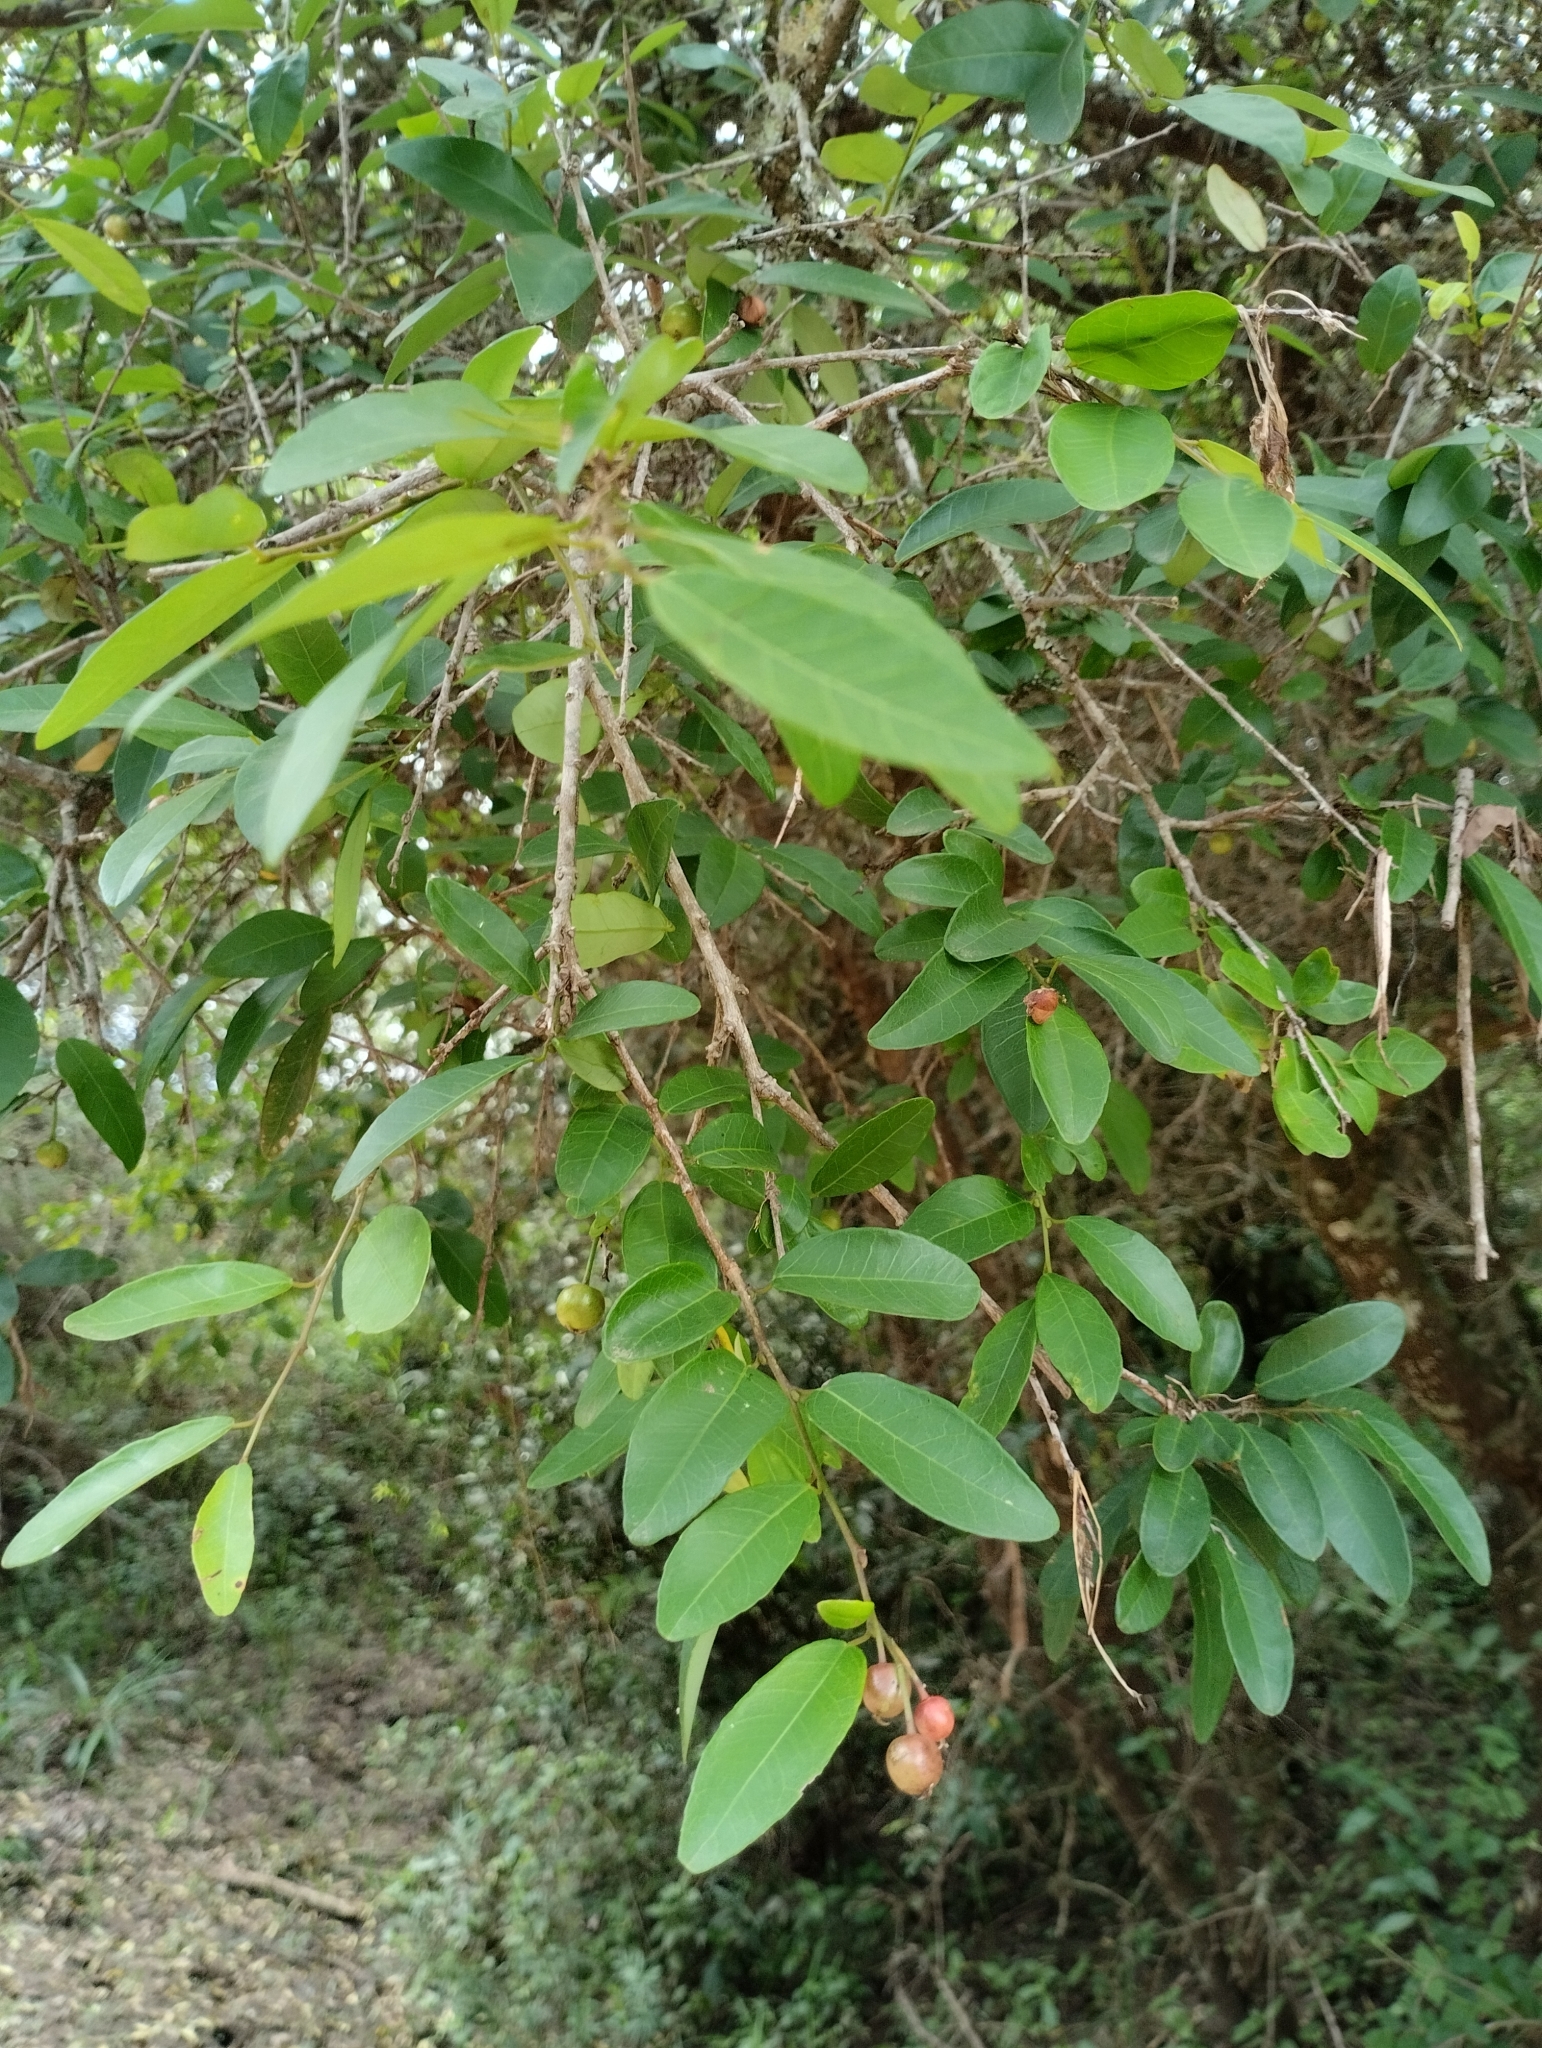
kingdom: Plantae
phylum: Tracheophyta
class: Magnoliopsida
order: Malpighiales
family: Euphorbiaceae
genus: Sebastiania
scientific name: Sebastiania klotzschiana
